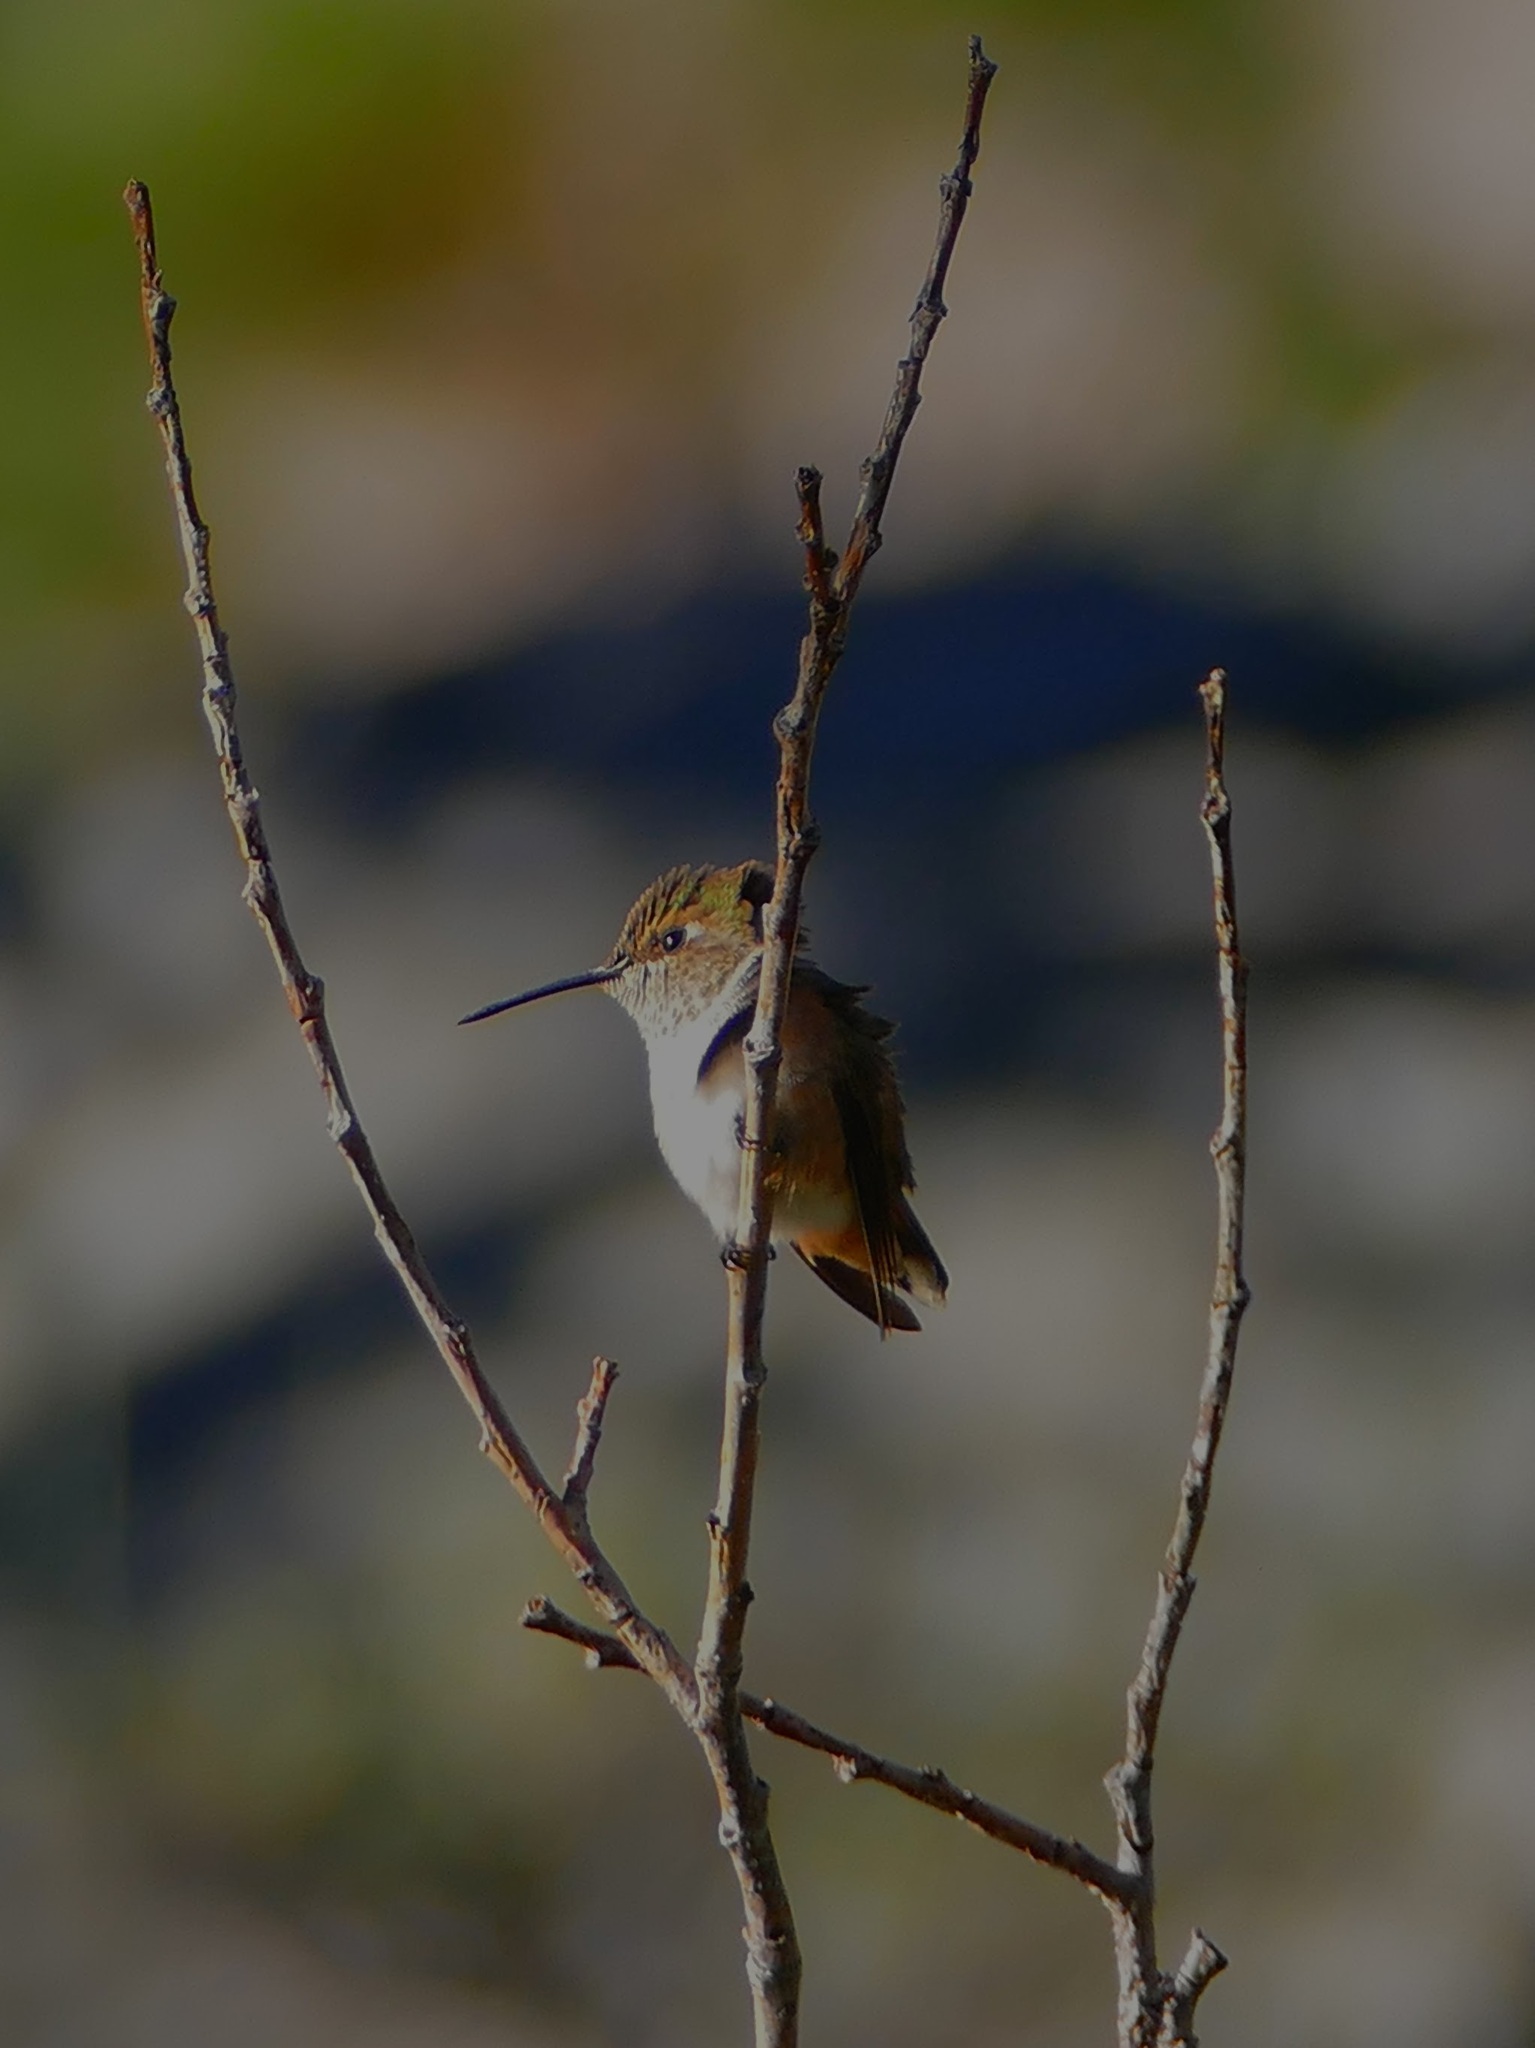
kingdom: Animalia
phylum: Chordata
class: Aves
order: Apodiformes
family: Trochilidae
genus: Selasphorus
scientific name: Selasphorus rufus
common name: Rufous hummingbird
